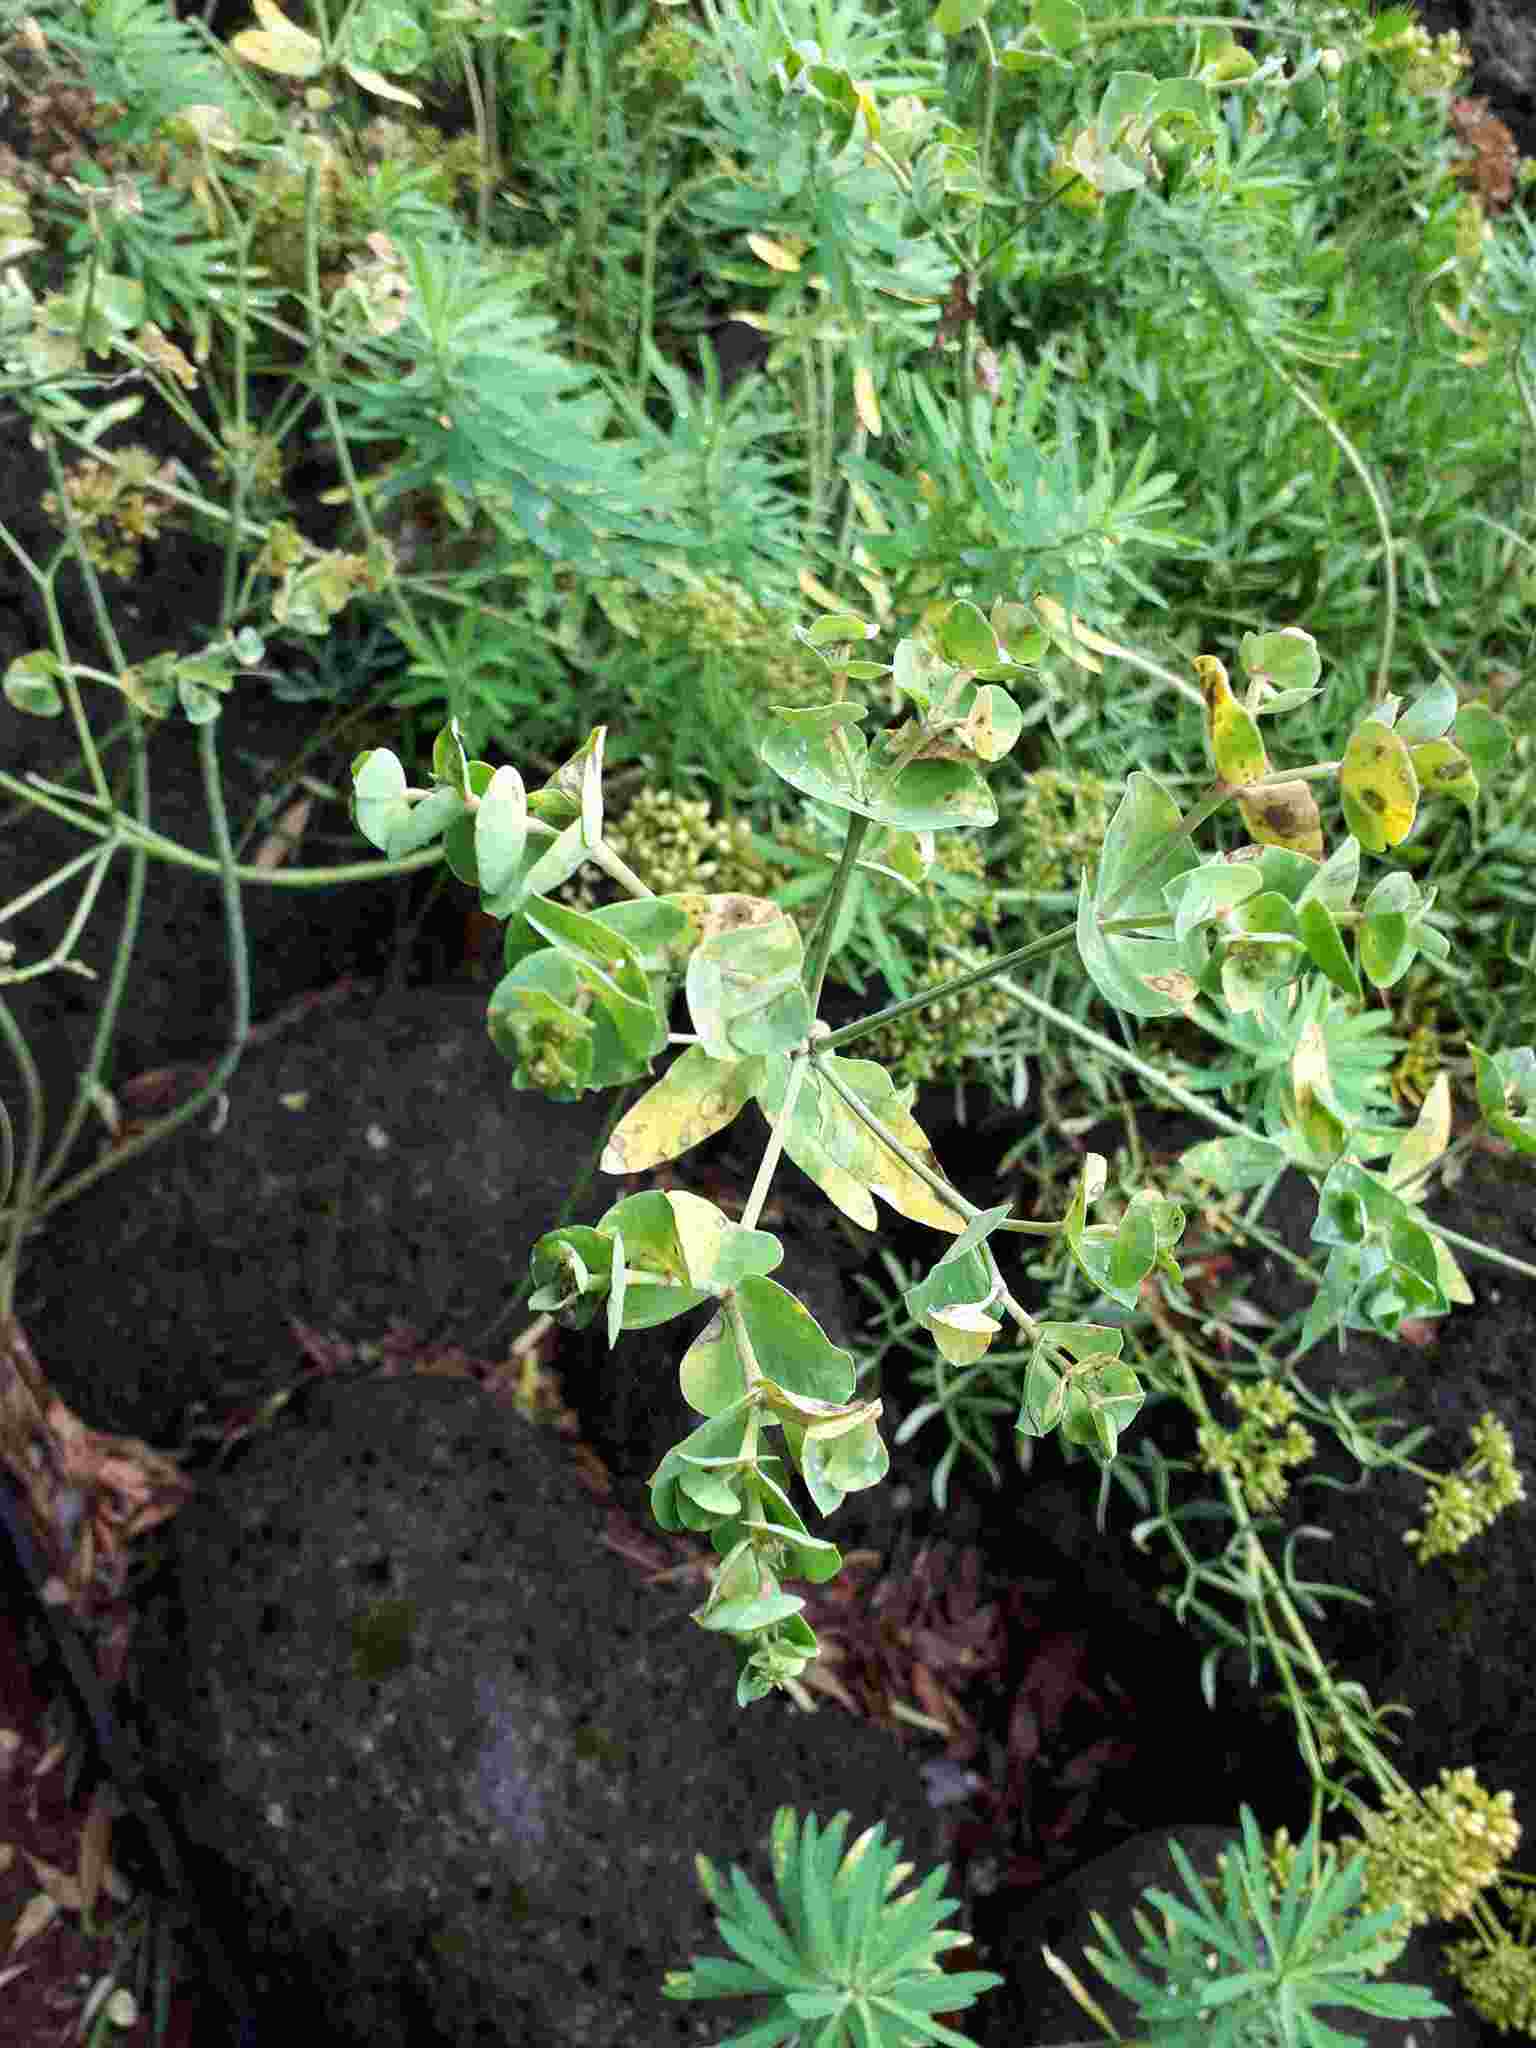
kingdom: Plantae
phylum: Tracheophyta
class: Magnoliopsida
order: Malpighiales
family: Euphorbiaceae
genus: Euphorbia
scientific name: Euphorbia azorica
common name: Erva-leitera
